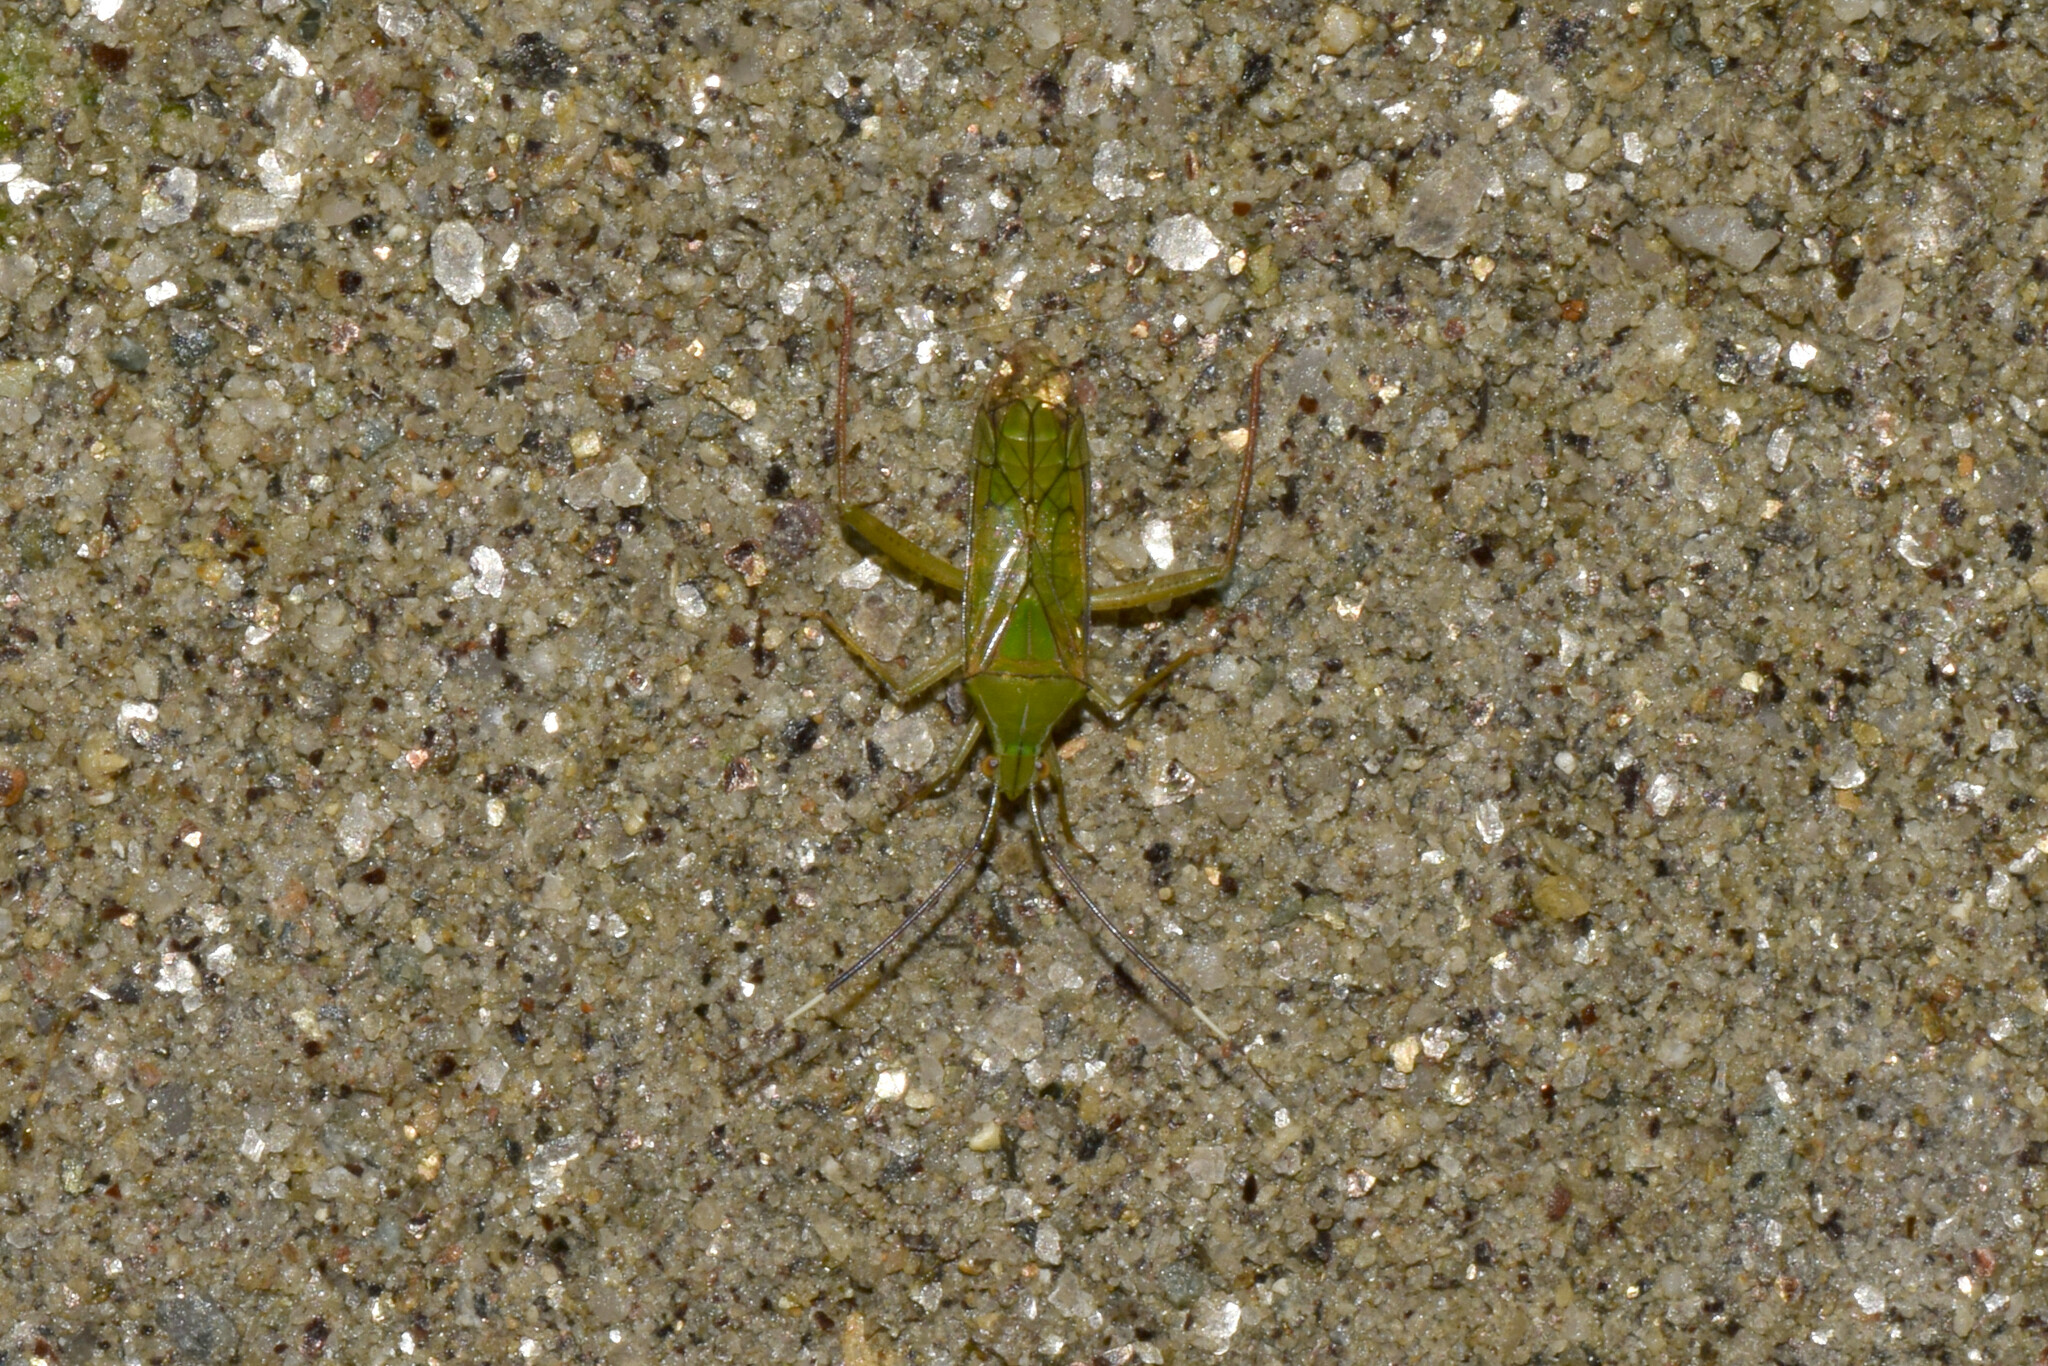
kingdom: Animalia
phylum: Arthropoda
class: Insecta
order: Hemiptera
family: Miridae
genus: Hyalopeplus
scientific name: Hyalopeplus clavatus
